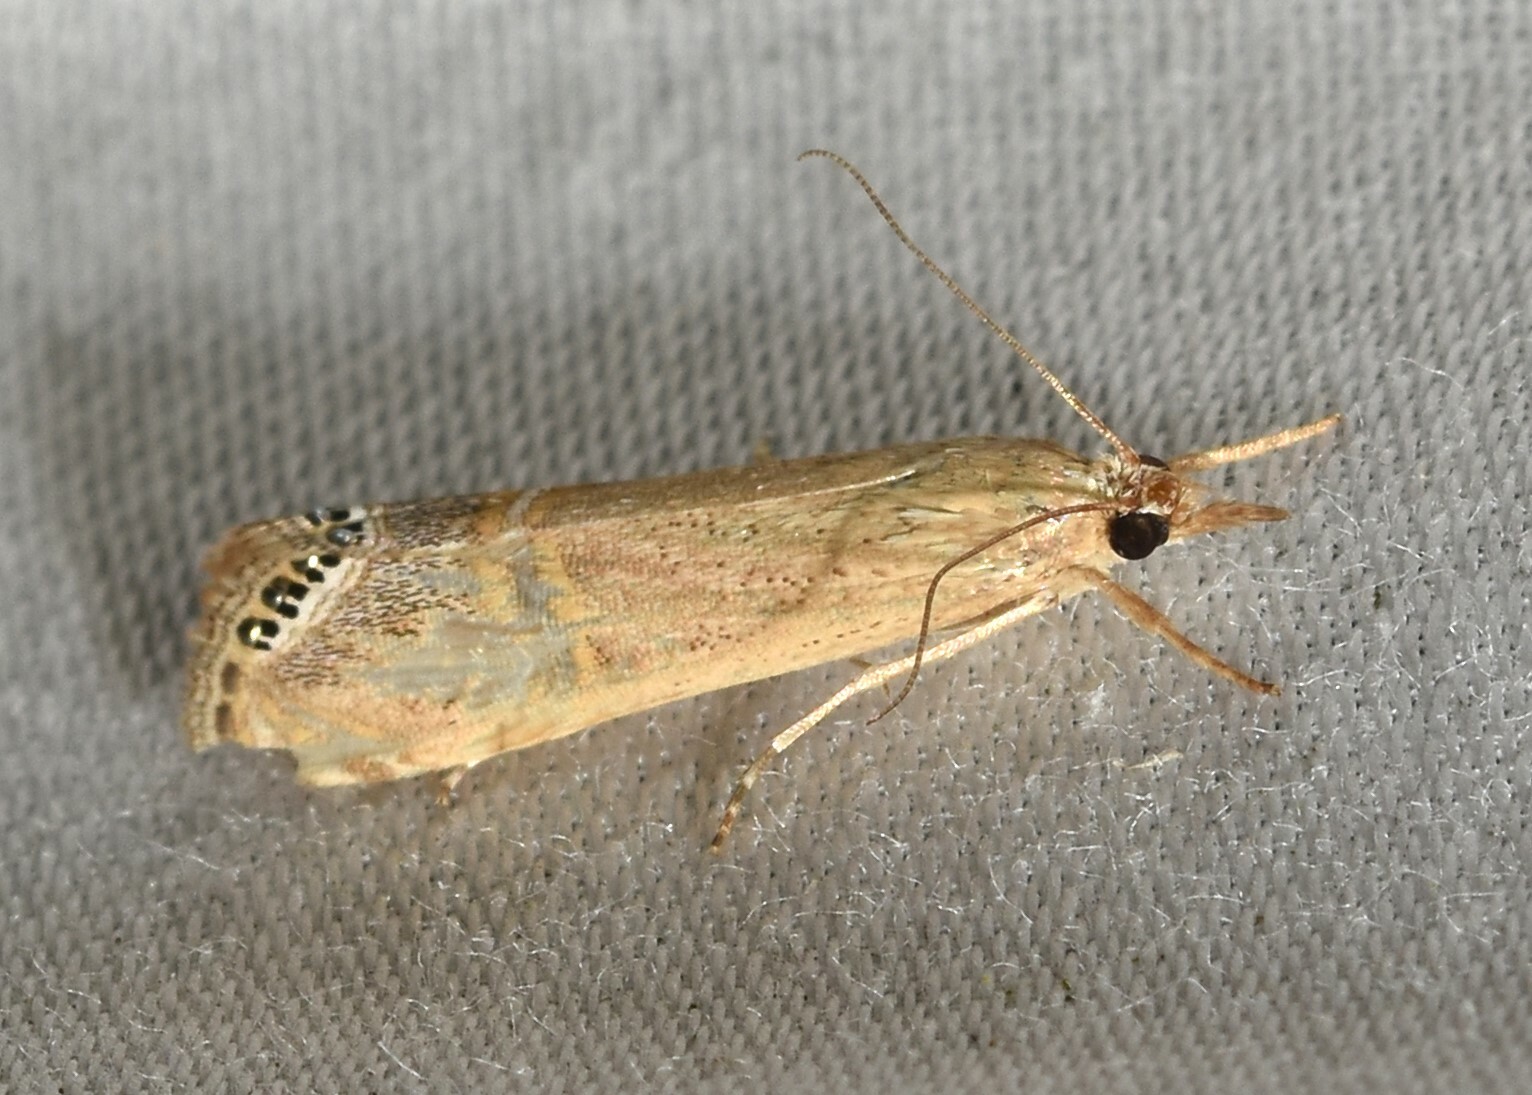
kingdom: Animalia
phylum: Arthropoda
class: Insecta
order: Lepidoptera
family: Crambidae
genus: Euchromius
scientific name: Euchromius ocellea
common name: Necklace veneer moth
